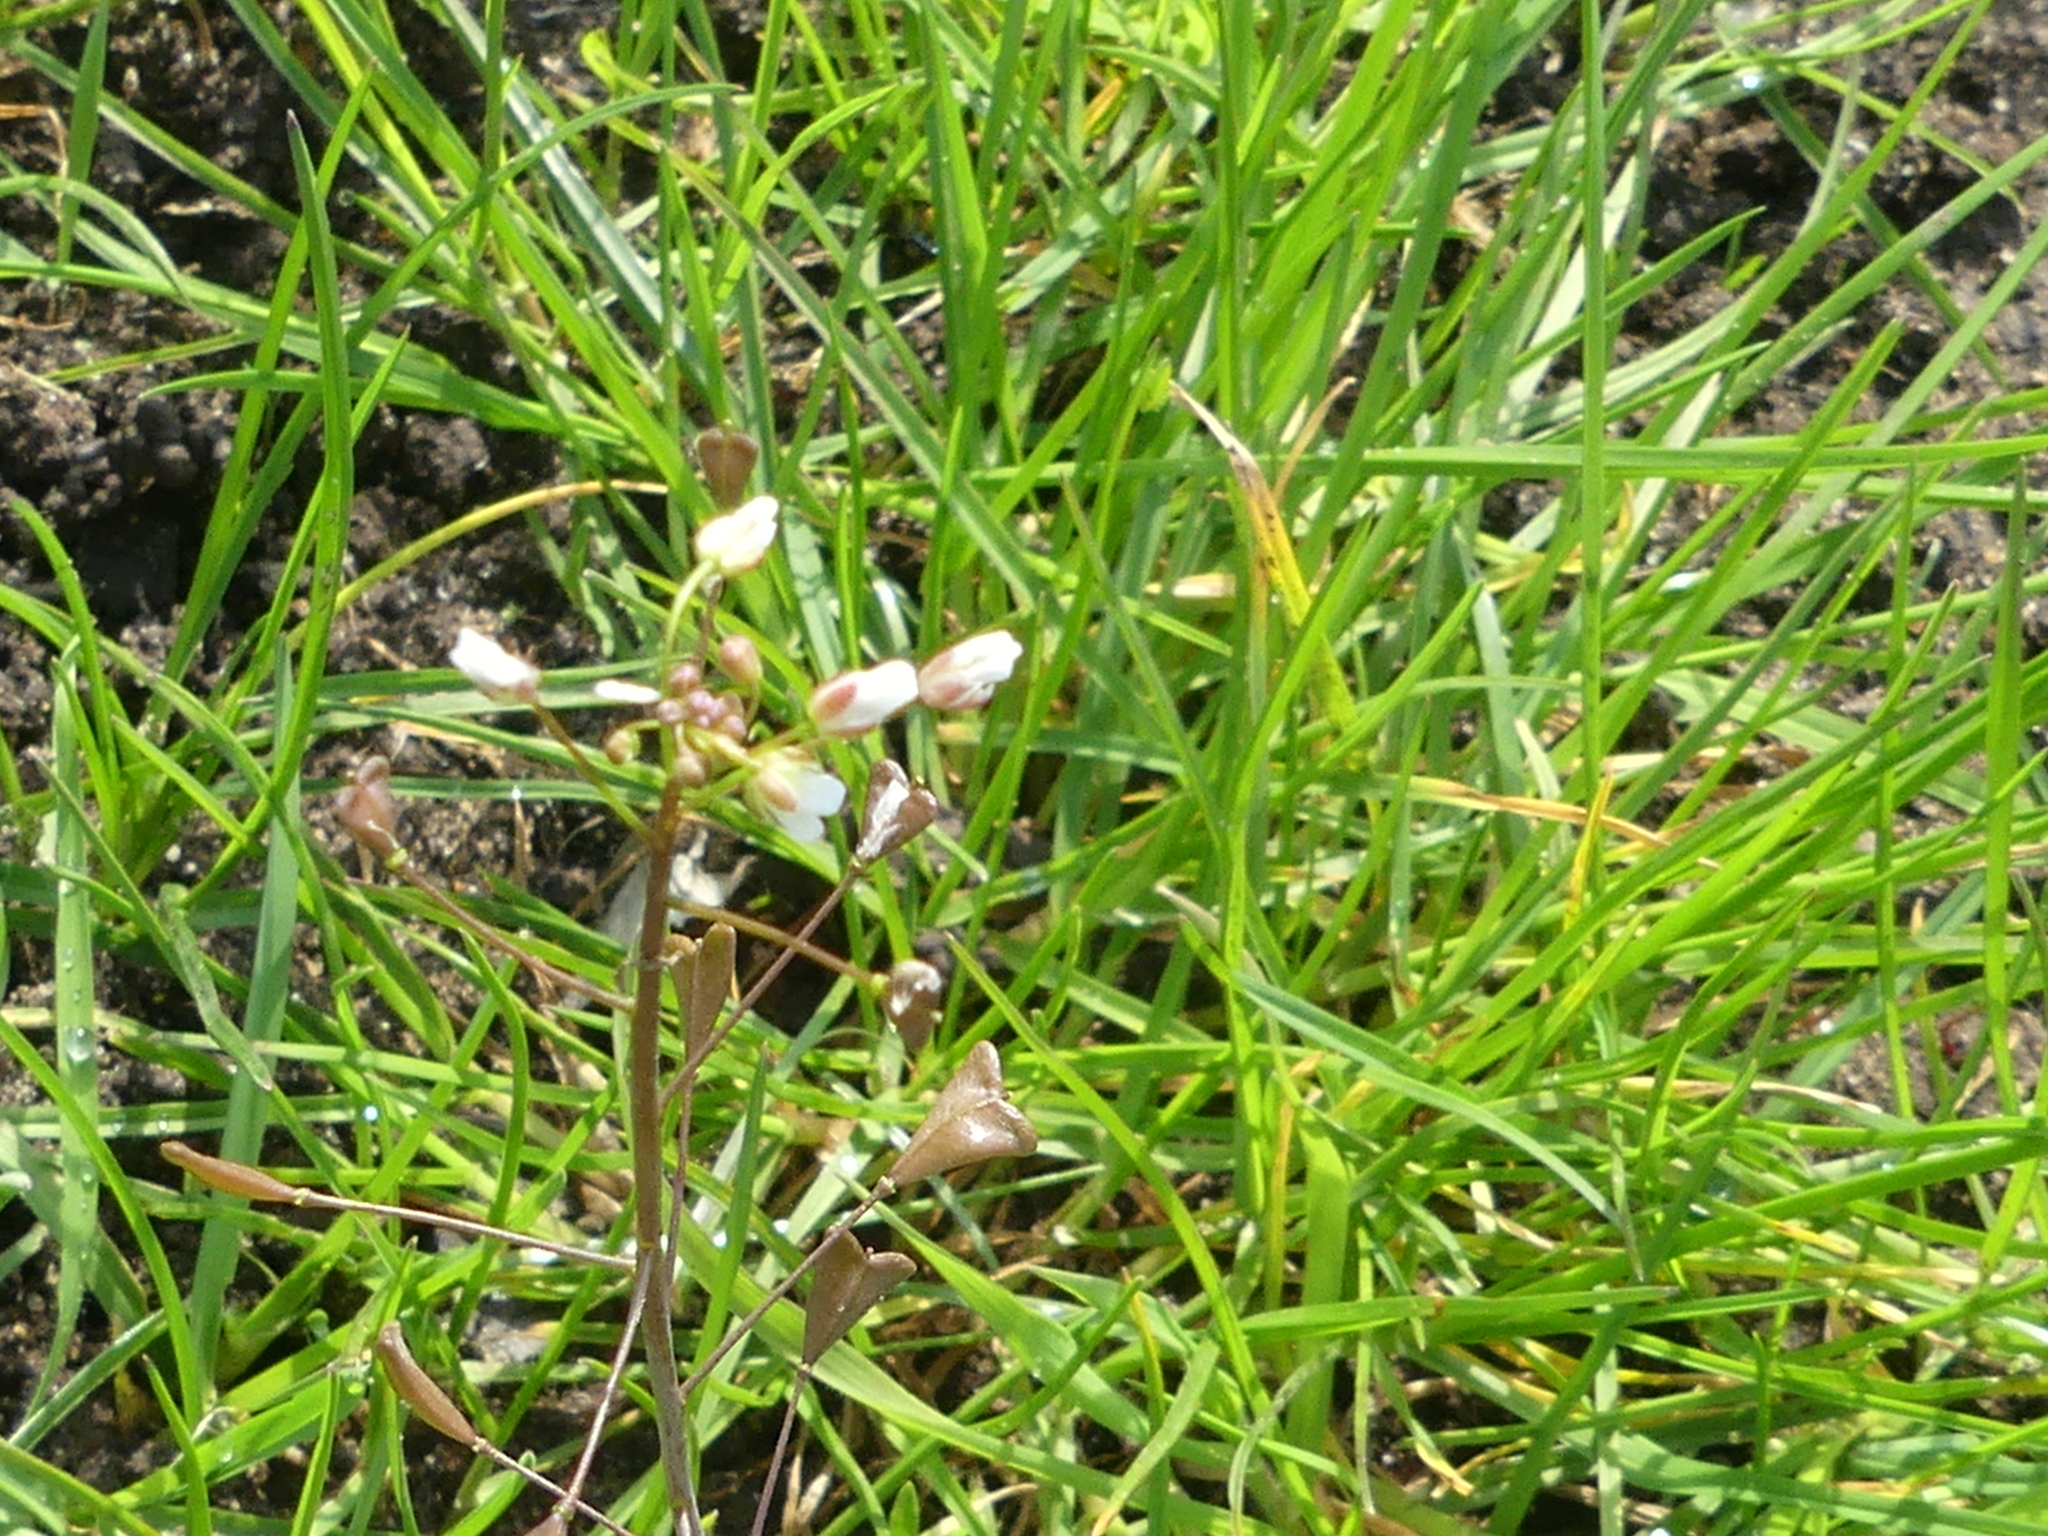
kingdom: Plantae
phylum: Tracheophyta
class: Magnoliopsida
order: Brassicales
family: Brassicaceae
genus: Capsella
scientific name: Capsella bursa-pastoris
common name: Shepherd's purse
